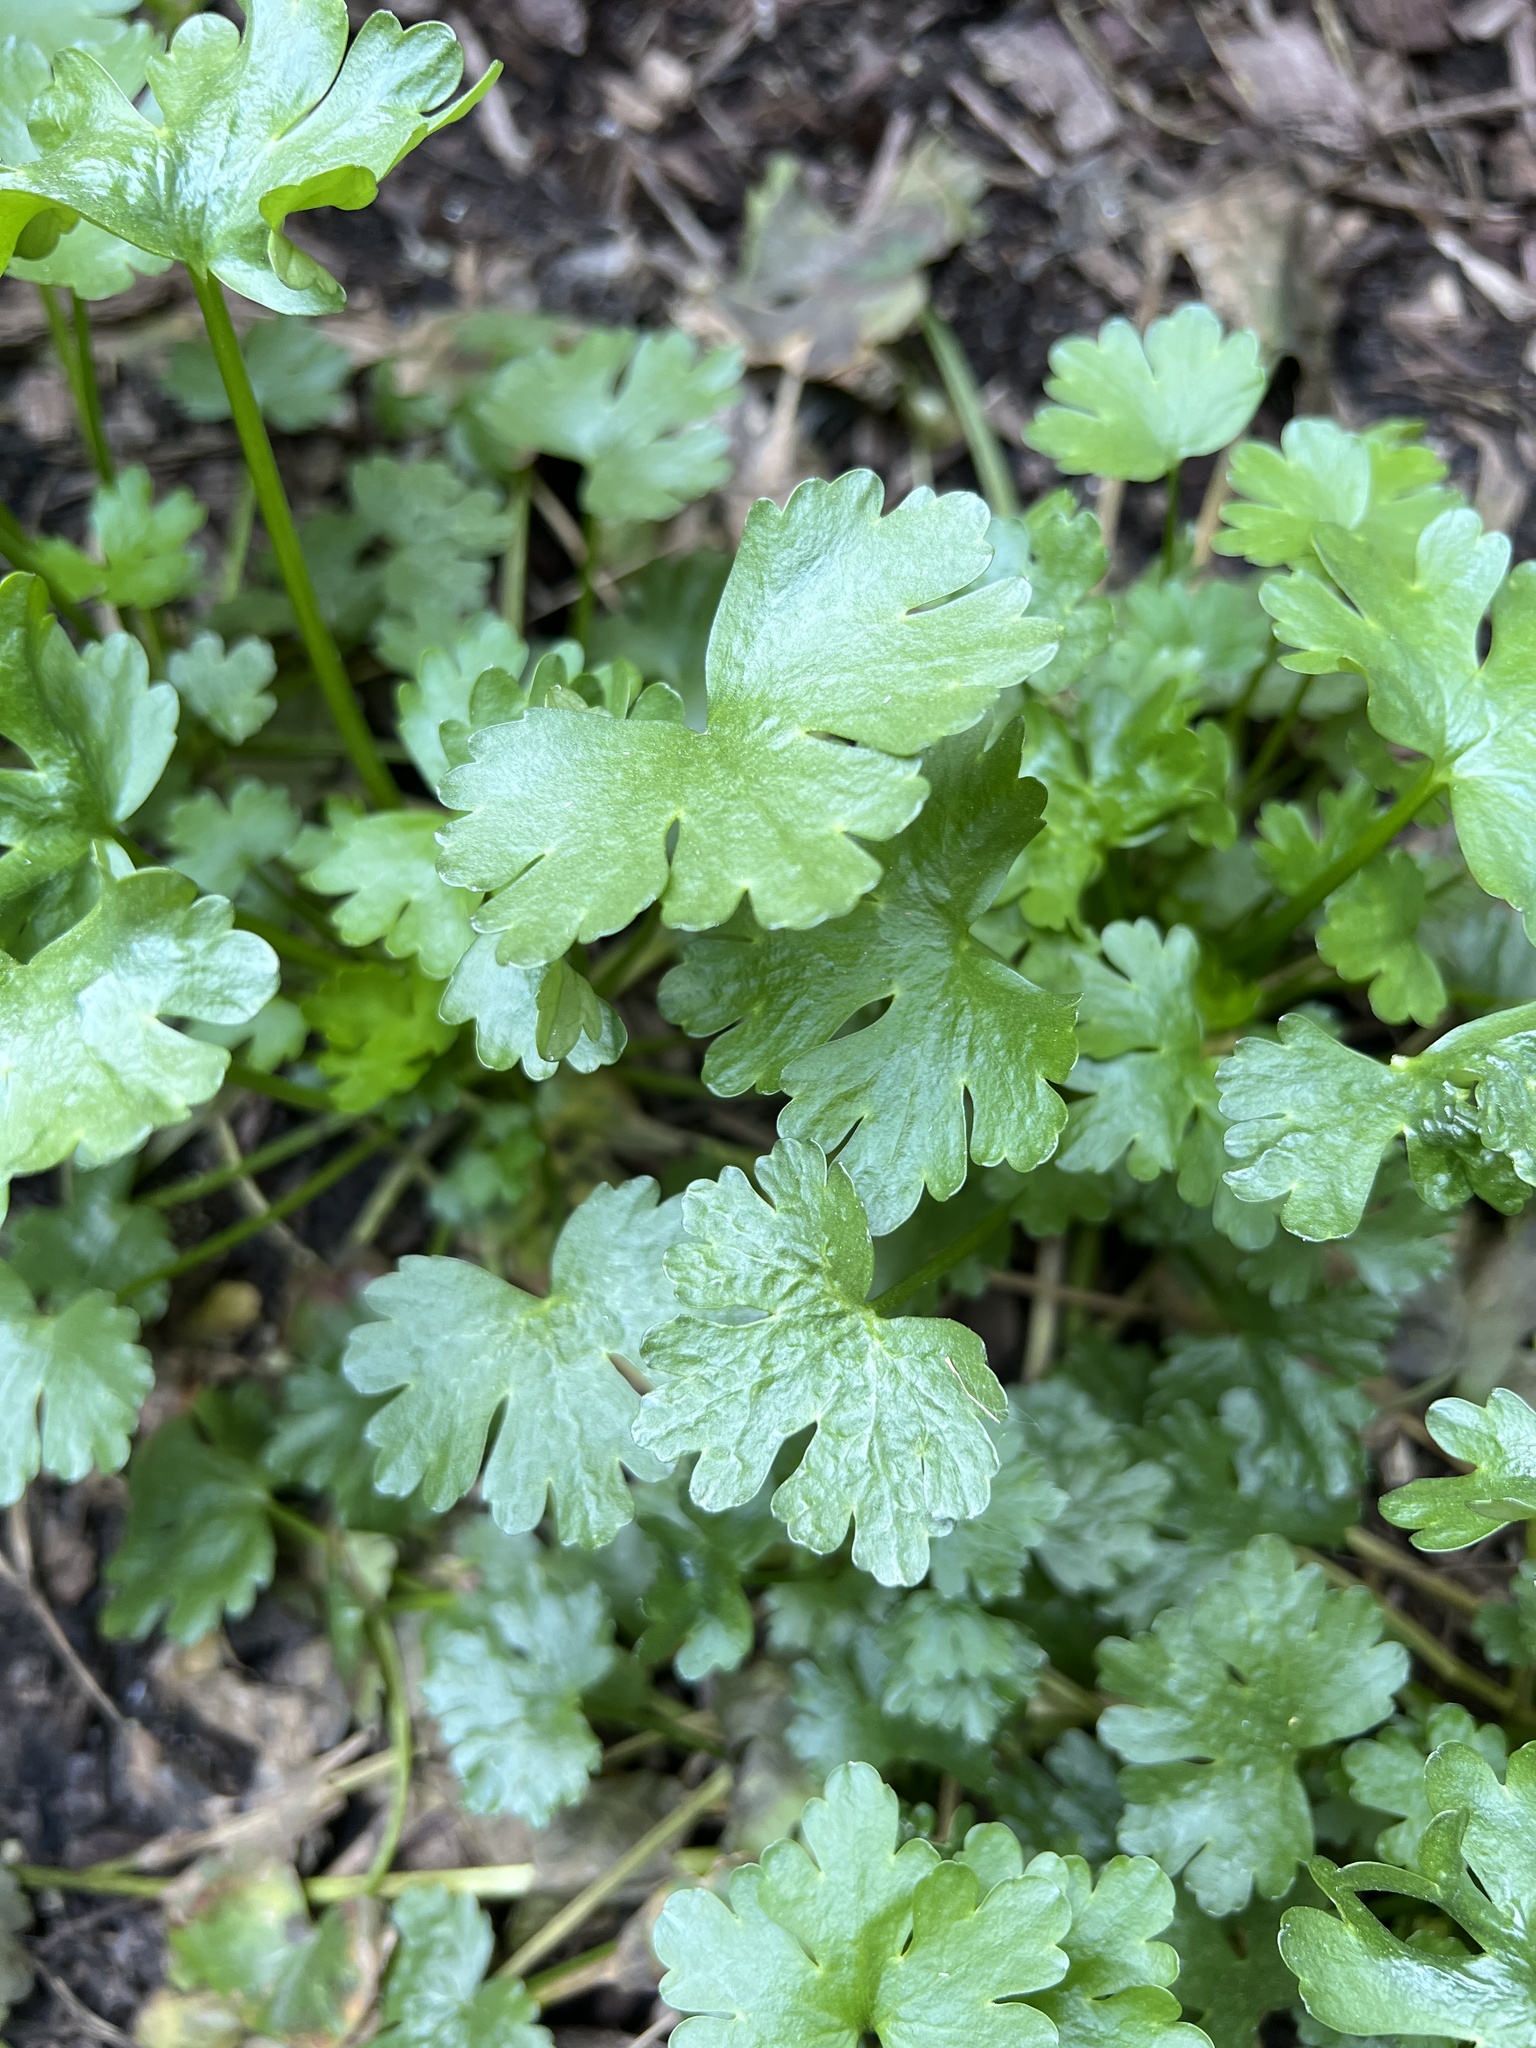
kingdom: Plantae
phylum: Tracheophyta
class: Magnoliopsida
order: Ranunculales
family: Ranunculaceae
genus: Ranunculus
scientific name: Ranunculus sceleratus
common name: Celery-leaved buttercup
